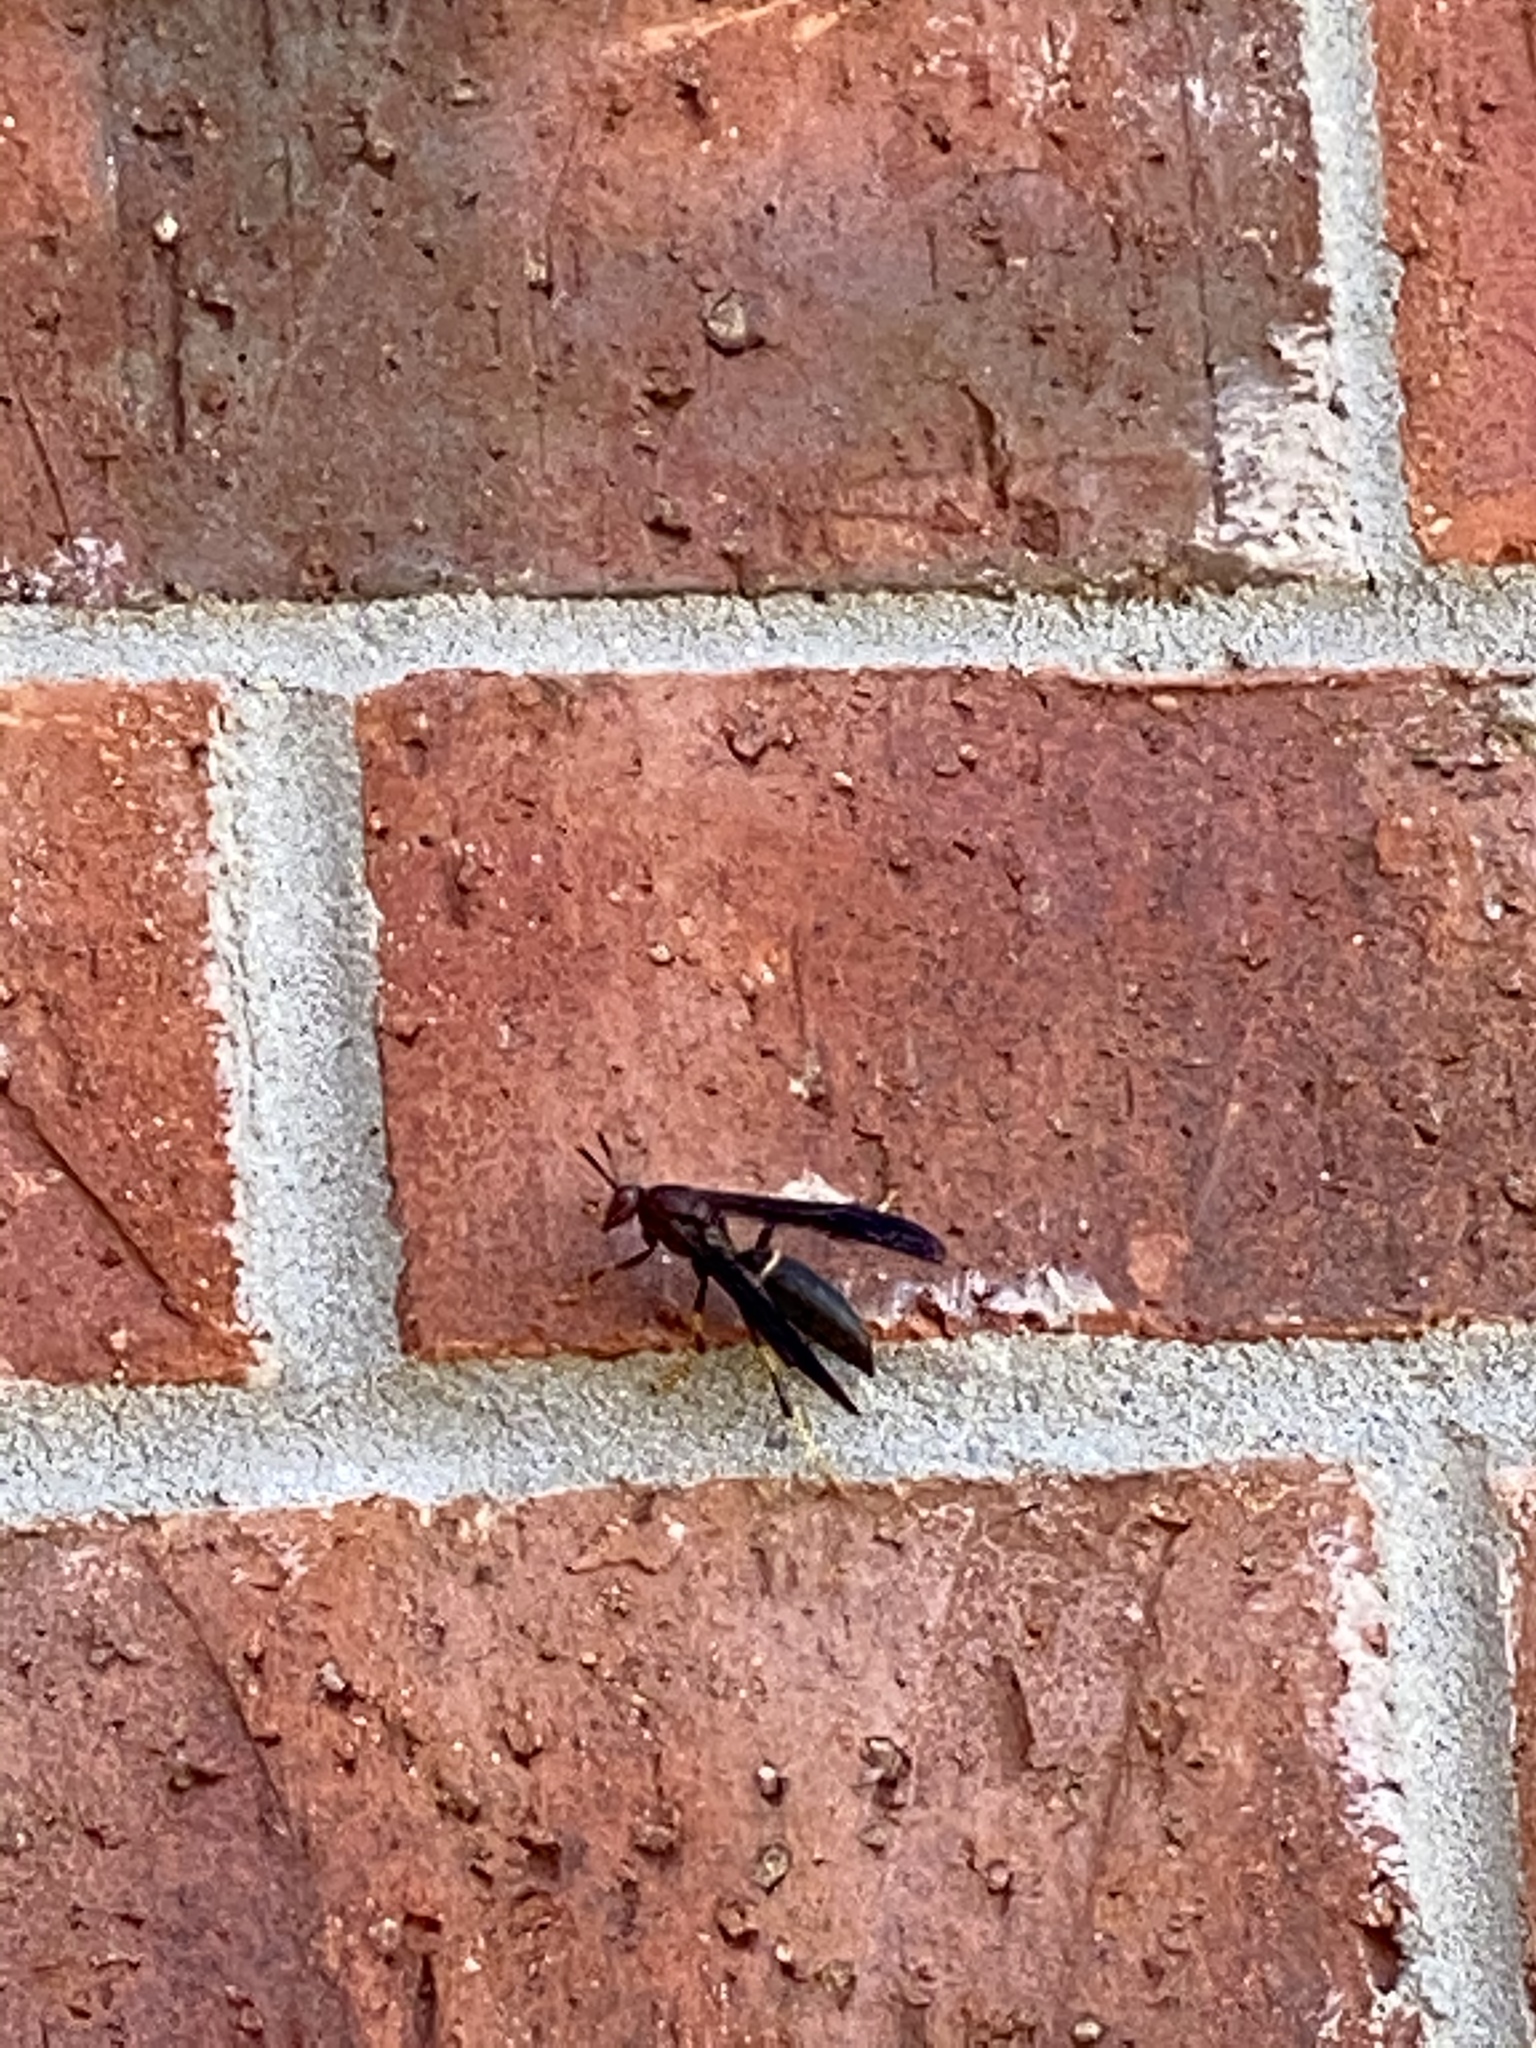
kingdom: Animalia
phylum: Arthropoda
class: Insecta
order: Hymenoptera
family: Eumenidae
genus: Polistes
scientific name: Polistes annularis
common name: Ringed paper wasp
